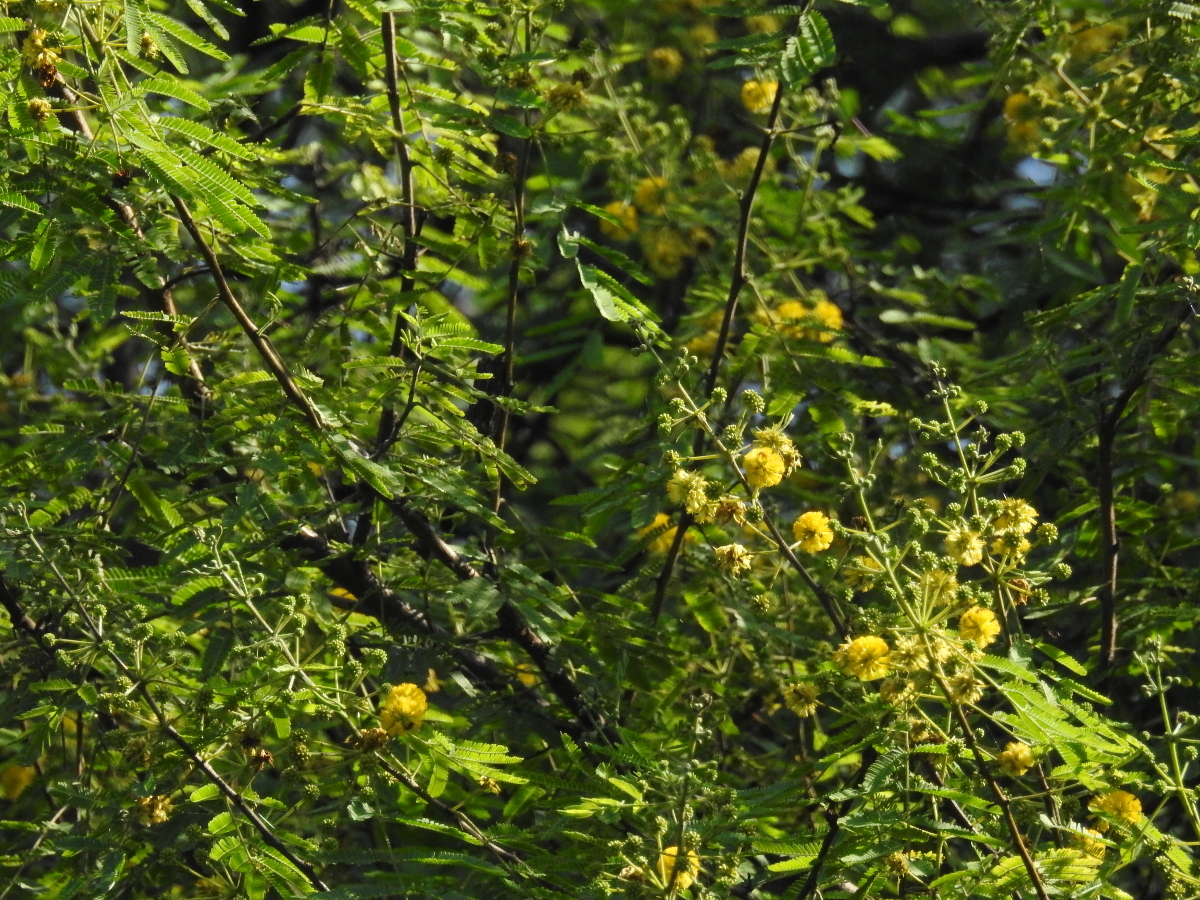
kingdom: Plantae
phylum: Tracheophyta
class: Magnoliopsida
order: Fabales
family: Fabaceae
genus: Vachellia
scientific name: Vachellia nilotica
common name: Arabic gumtree
